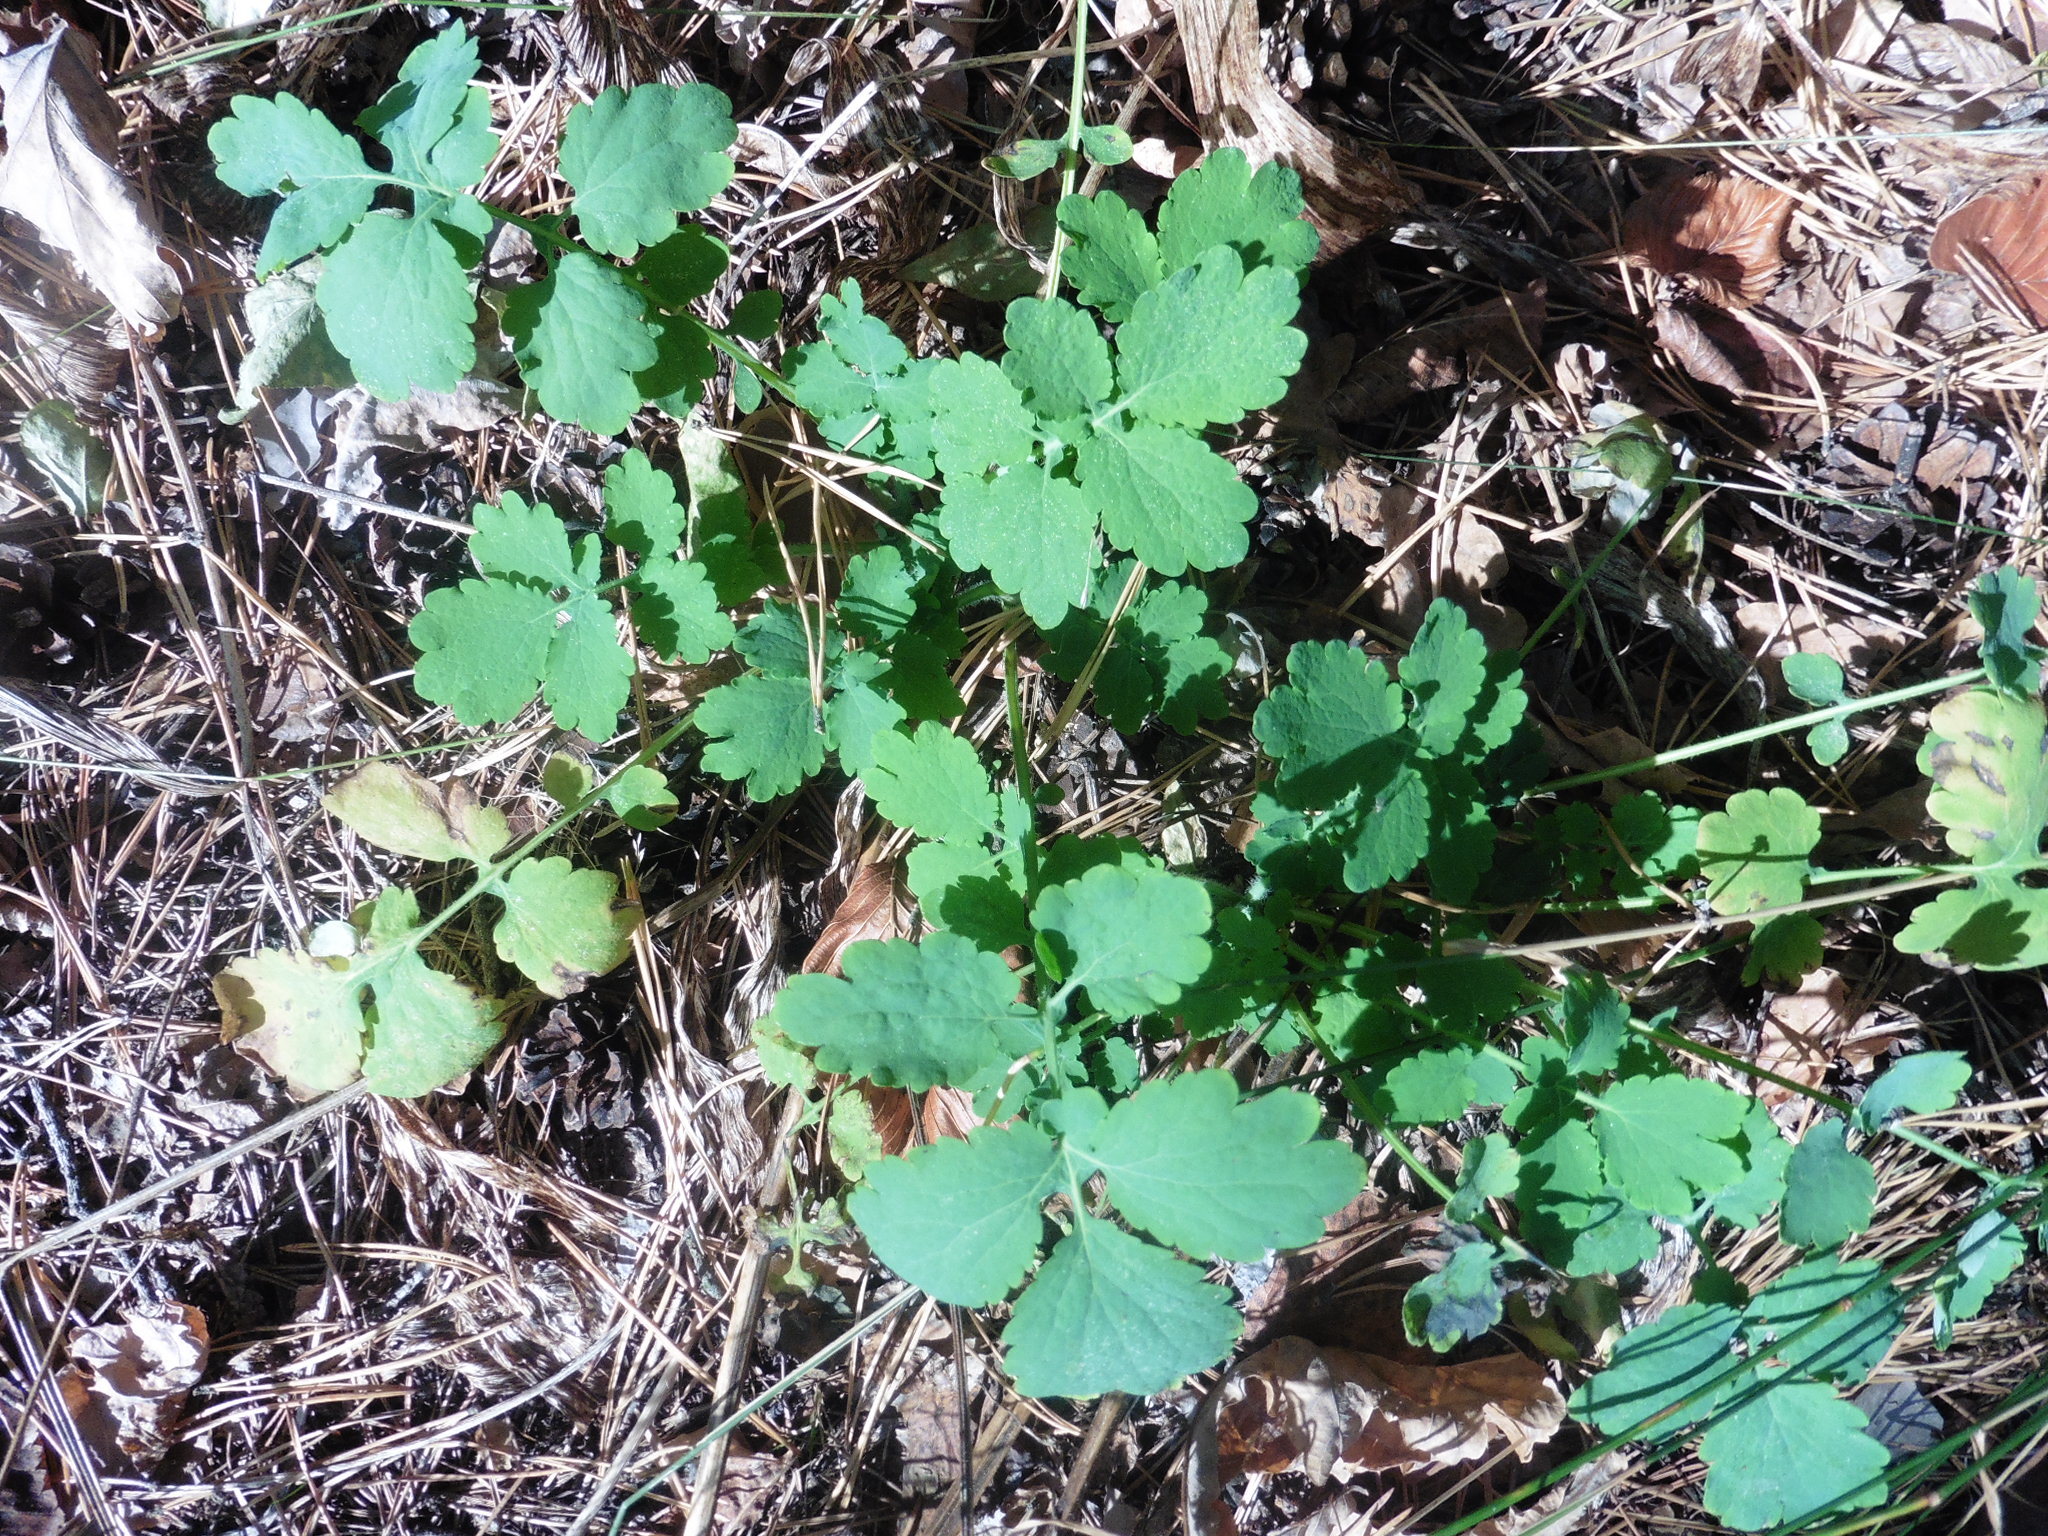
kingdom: Plantae
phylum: Tracheophyta
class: Magnoliopsida
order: Ranunculales
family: Papaveraceae
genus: Chelidonium
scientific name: Chelidonium majus
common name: Greater celandine
